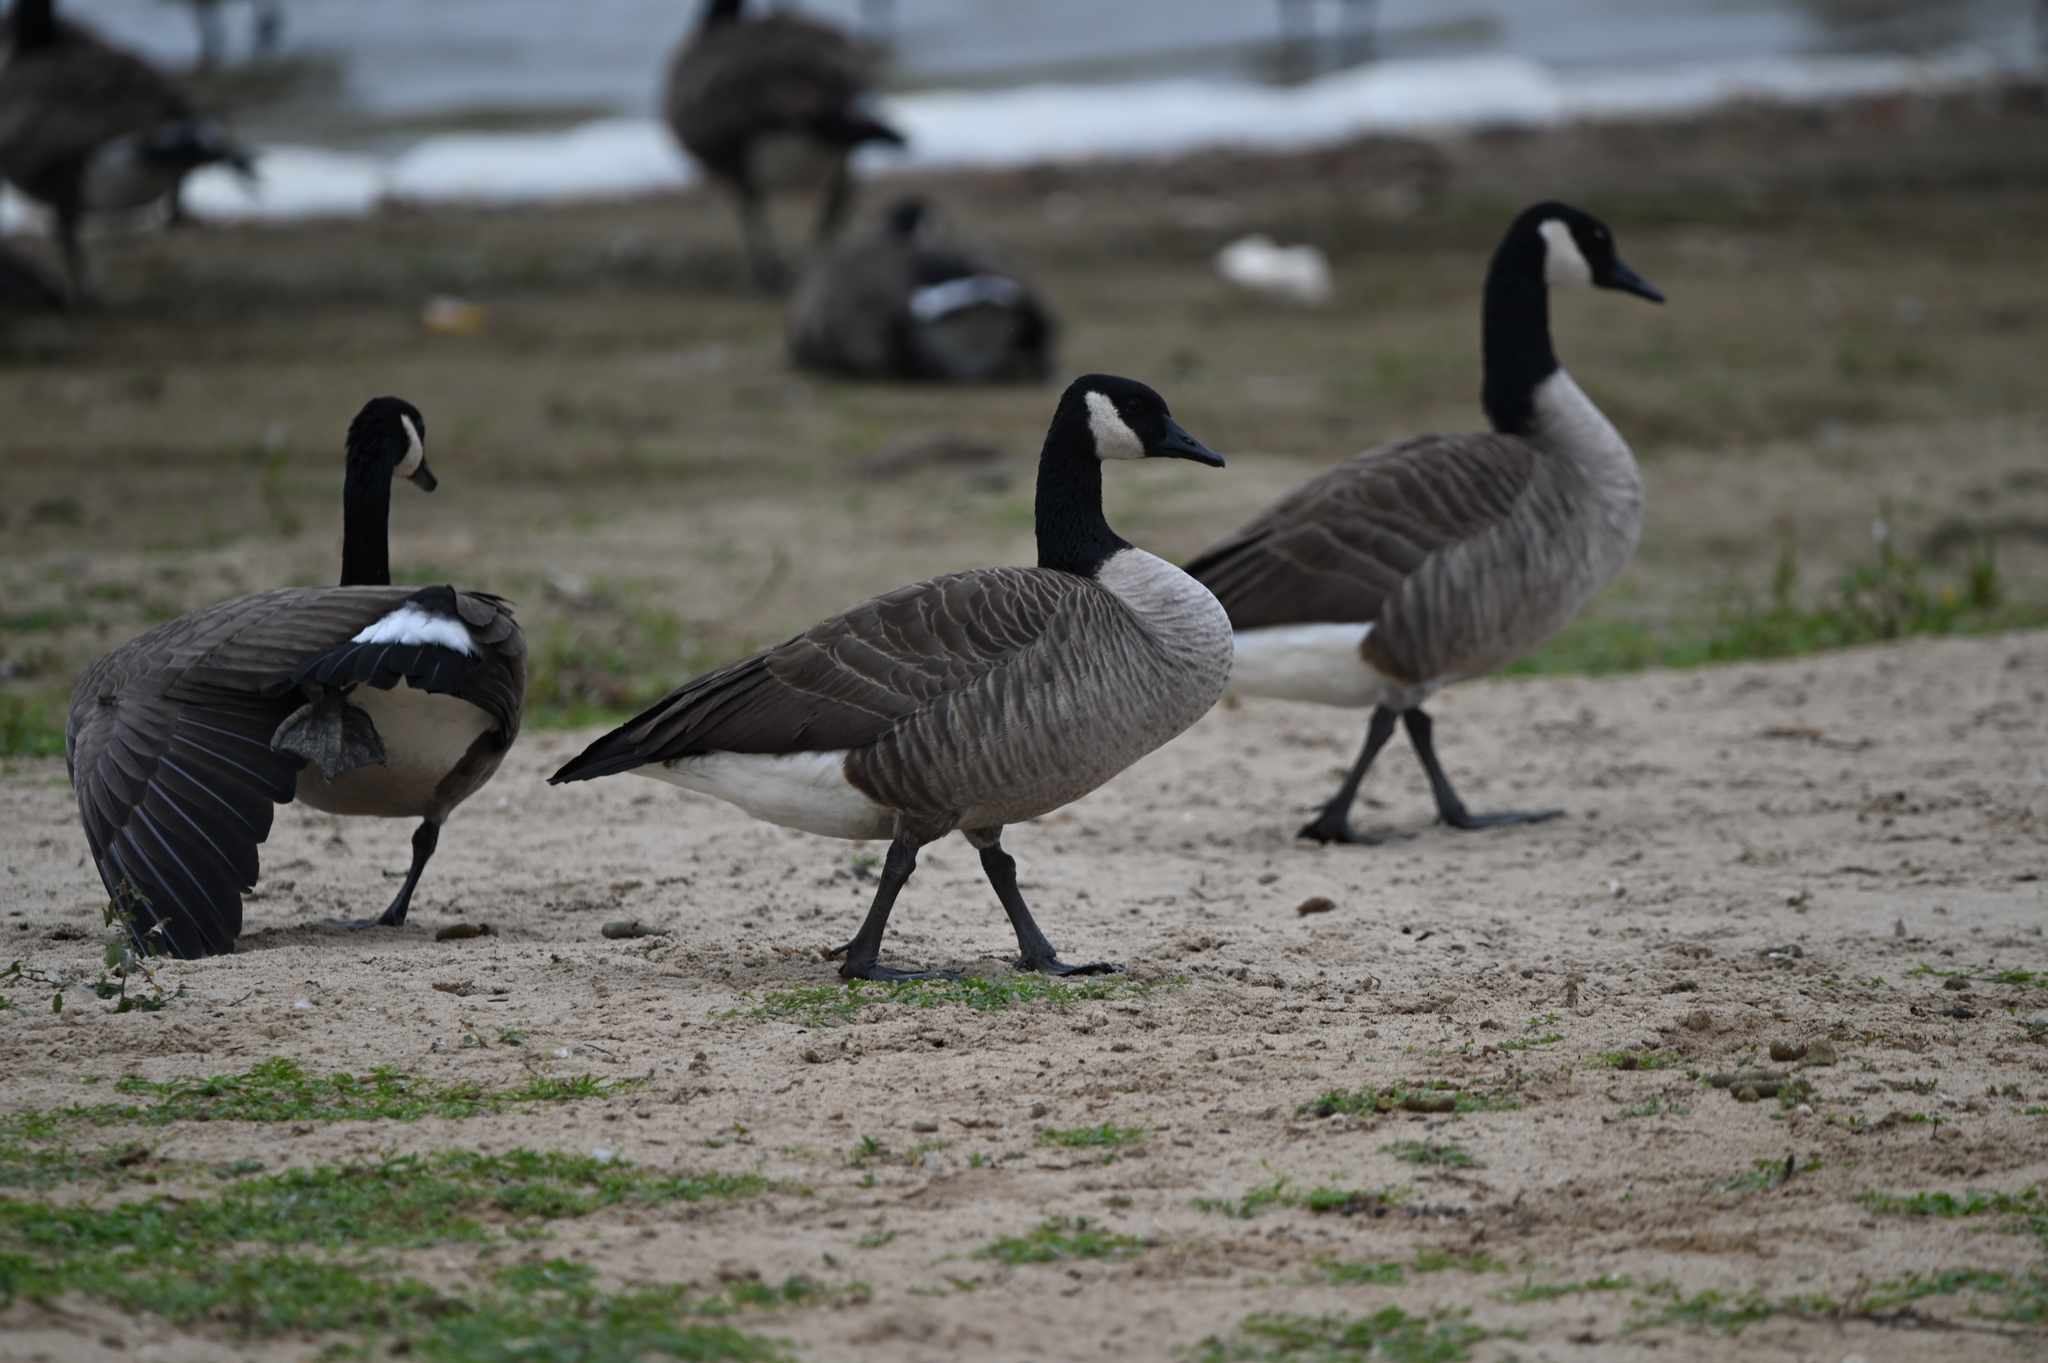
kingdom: Animalia
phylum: Chordata
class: Aves
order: Anseriformes
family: Anatidae
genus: Branta
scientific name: Branta canadensis
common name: Canada goose
